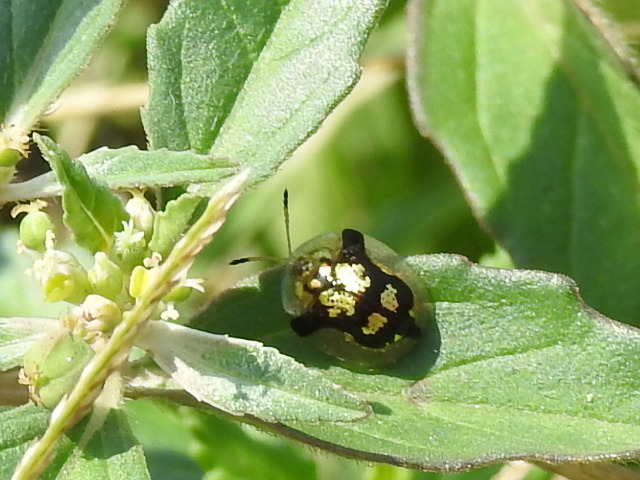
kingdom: Animalia
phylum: Arthropoda
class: Insecta
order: Coleoptera
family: Chrysomelidae
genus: Deloyala
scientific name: Deloyala guttata
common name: Mottled tortoise beetle
